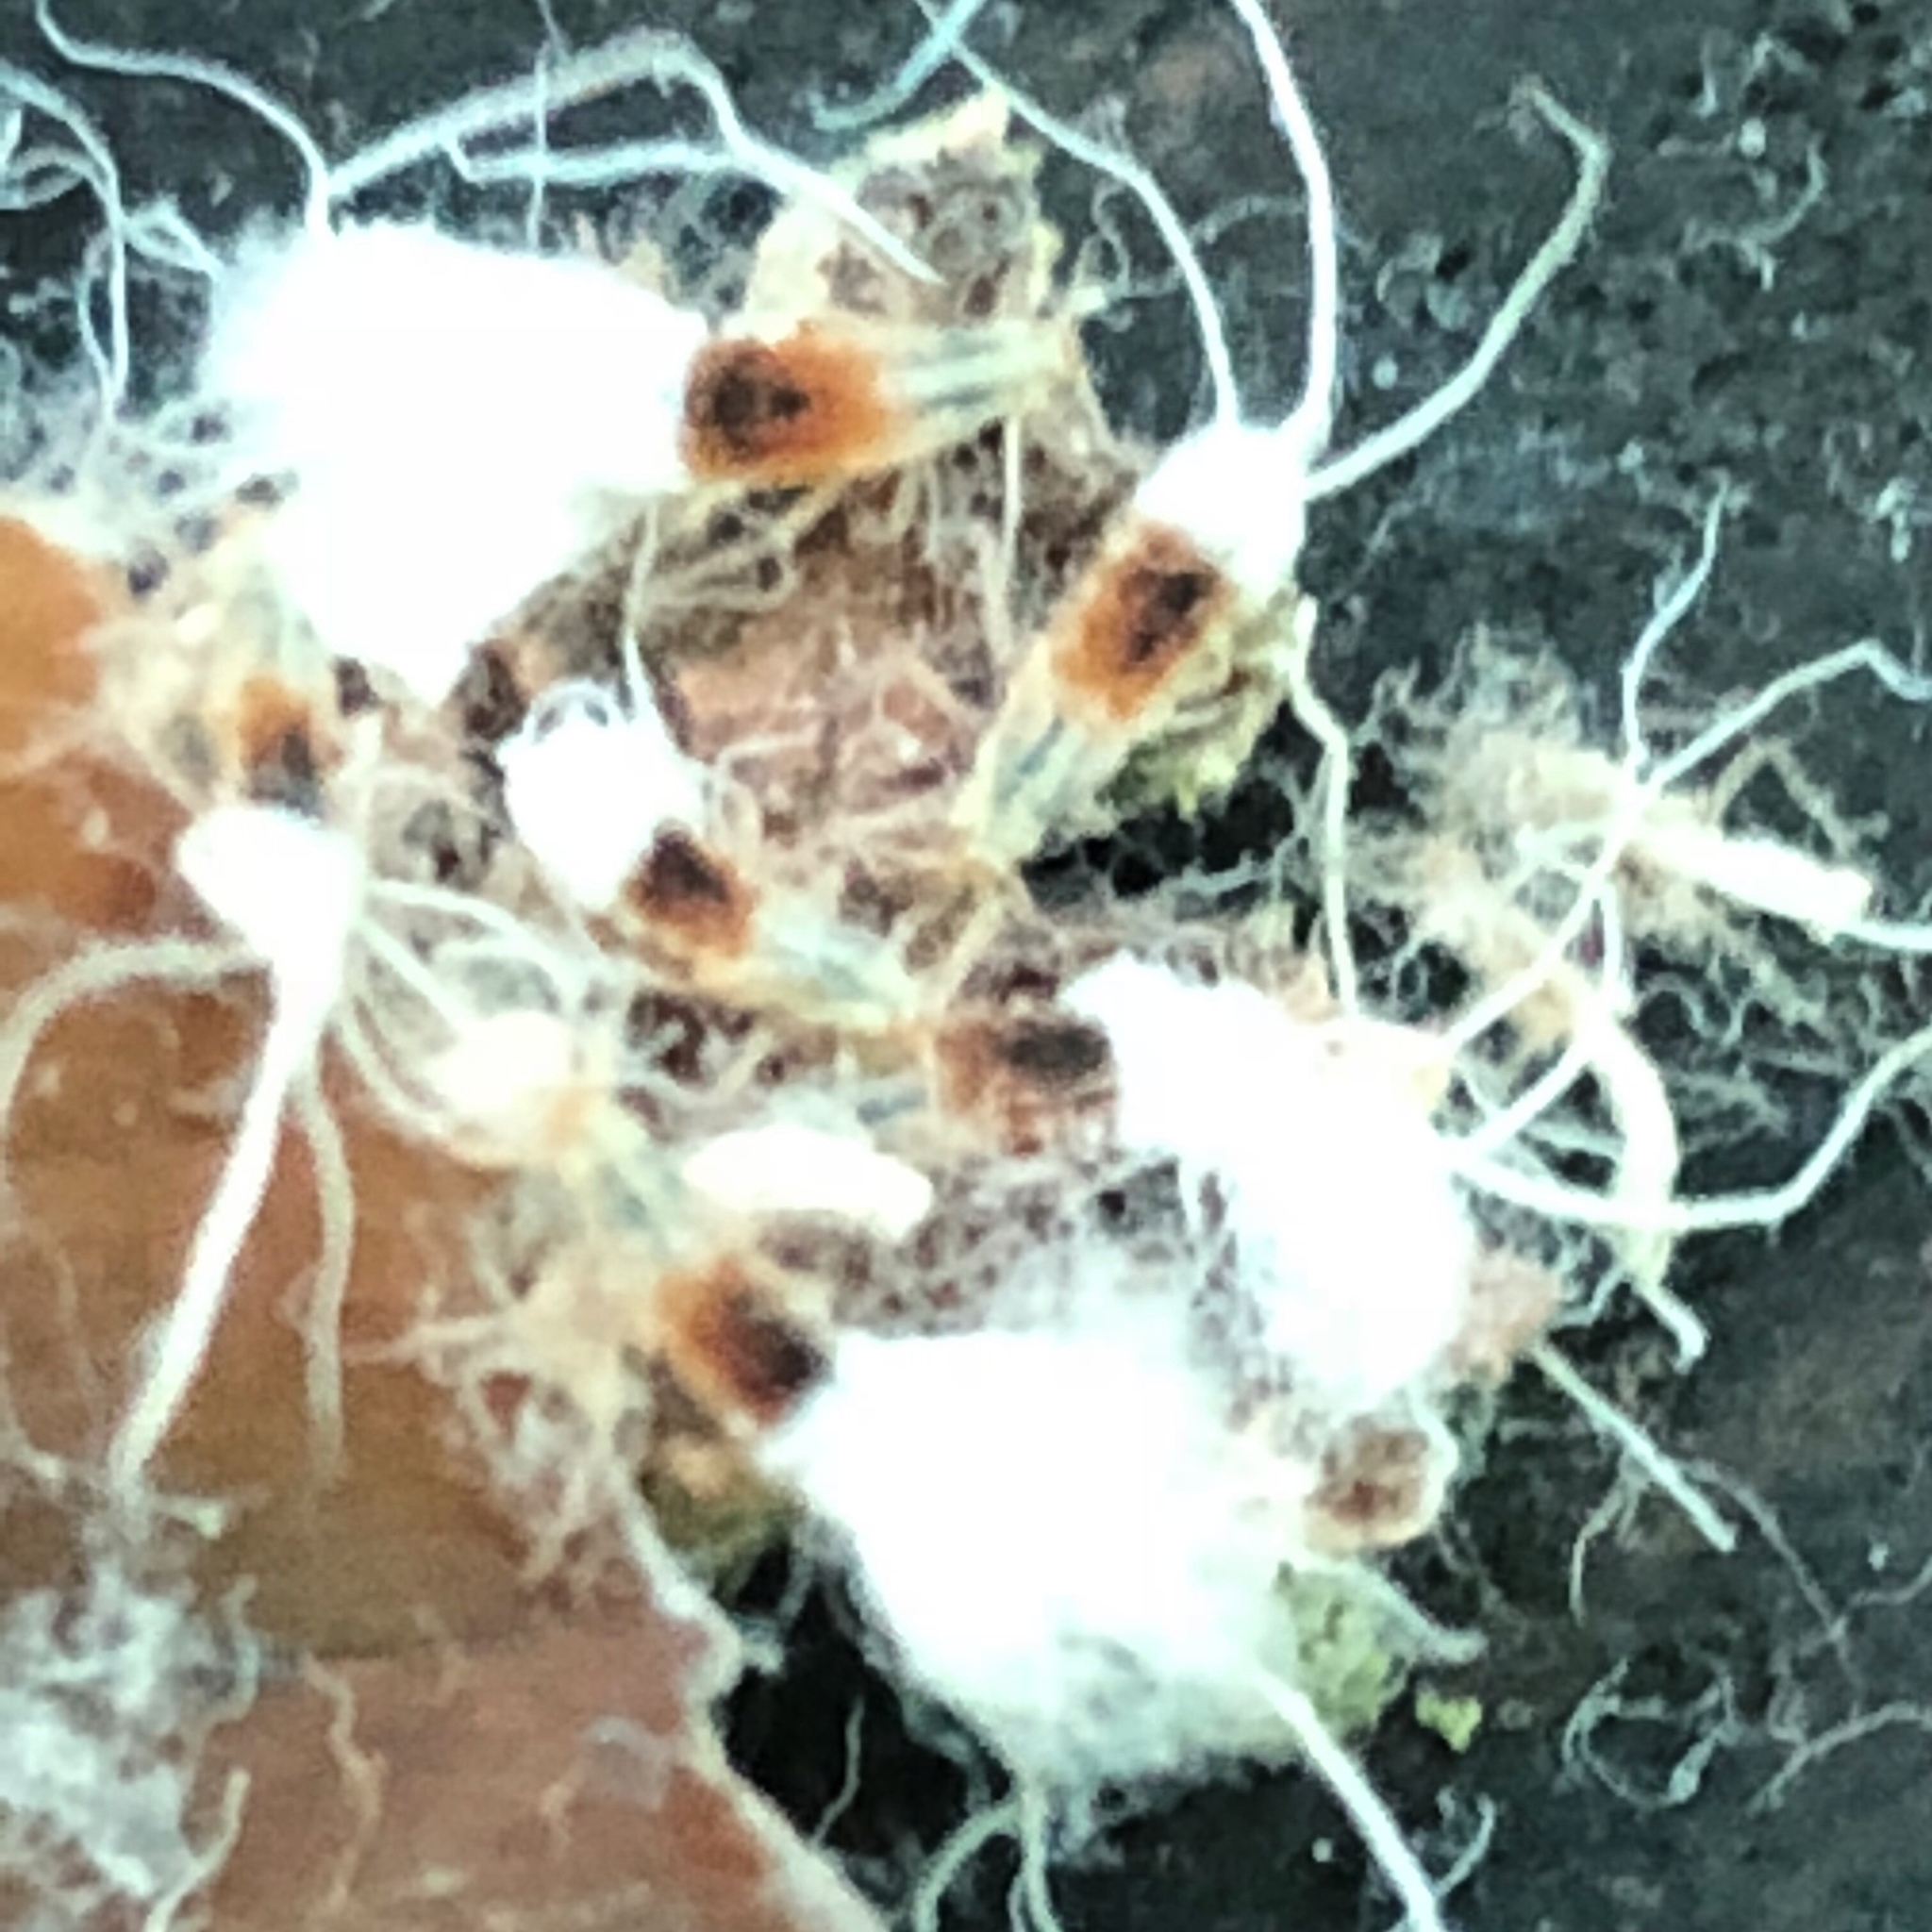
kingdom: Animalia
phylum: Arthropoda
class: Insecta
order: Hemiptera
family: Aphididae
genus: Grylloprociphilus
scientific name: Grylloprociphilus imbricator
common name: Beech blight aphid
